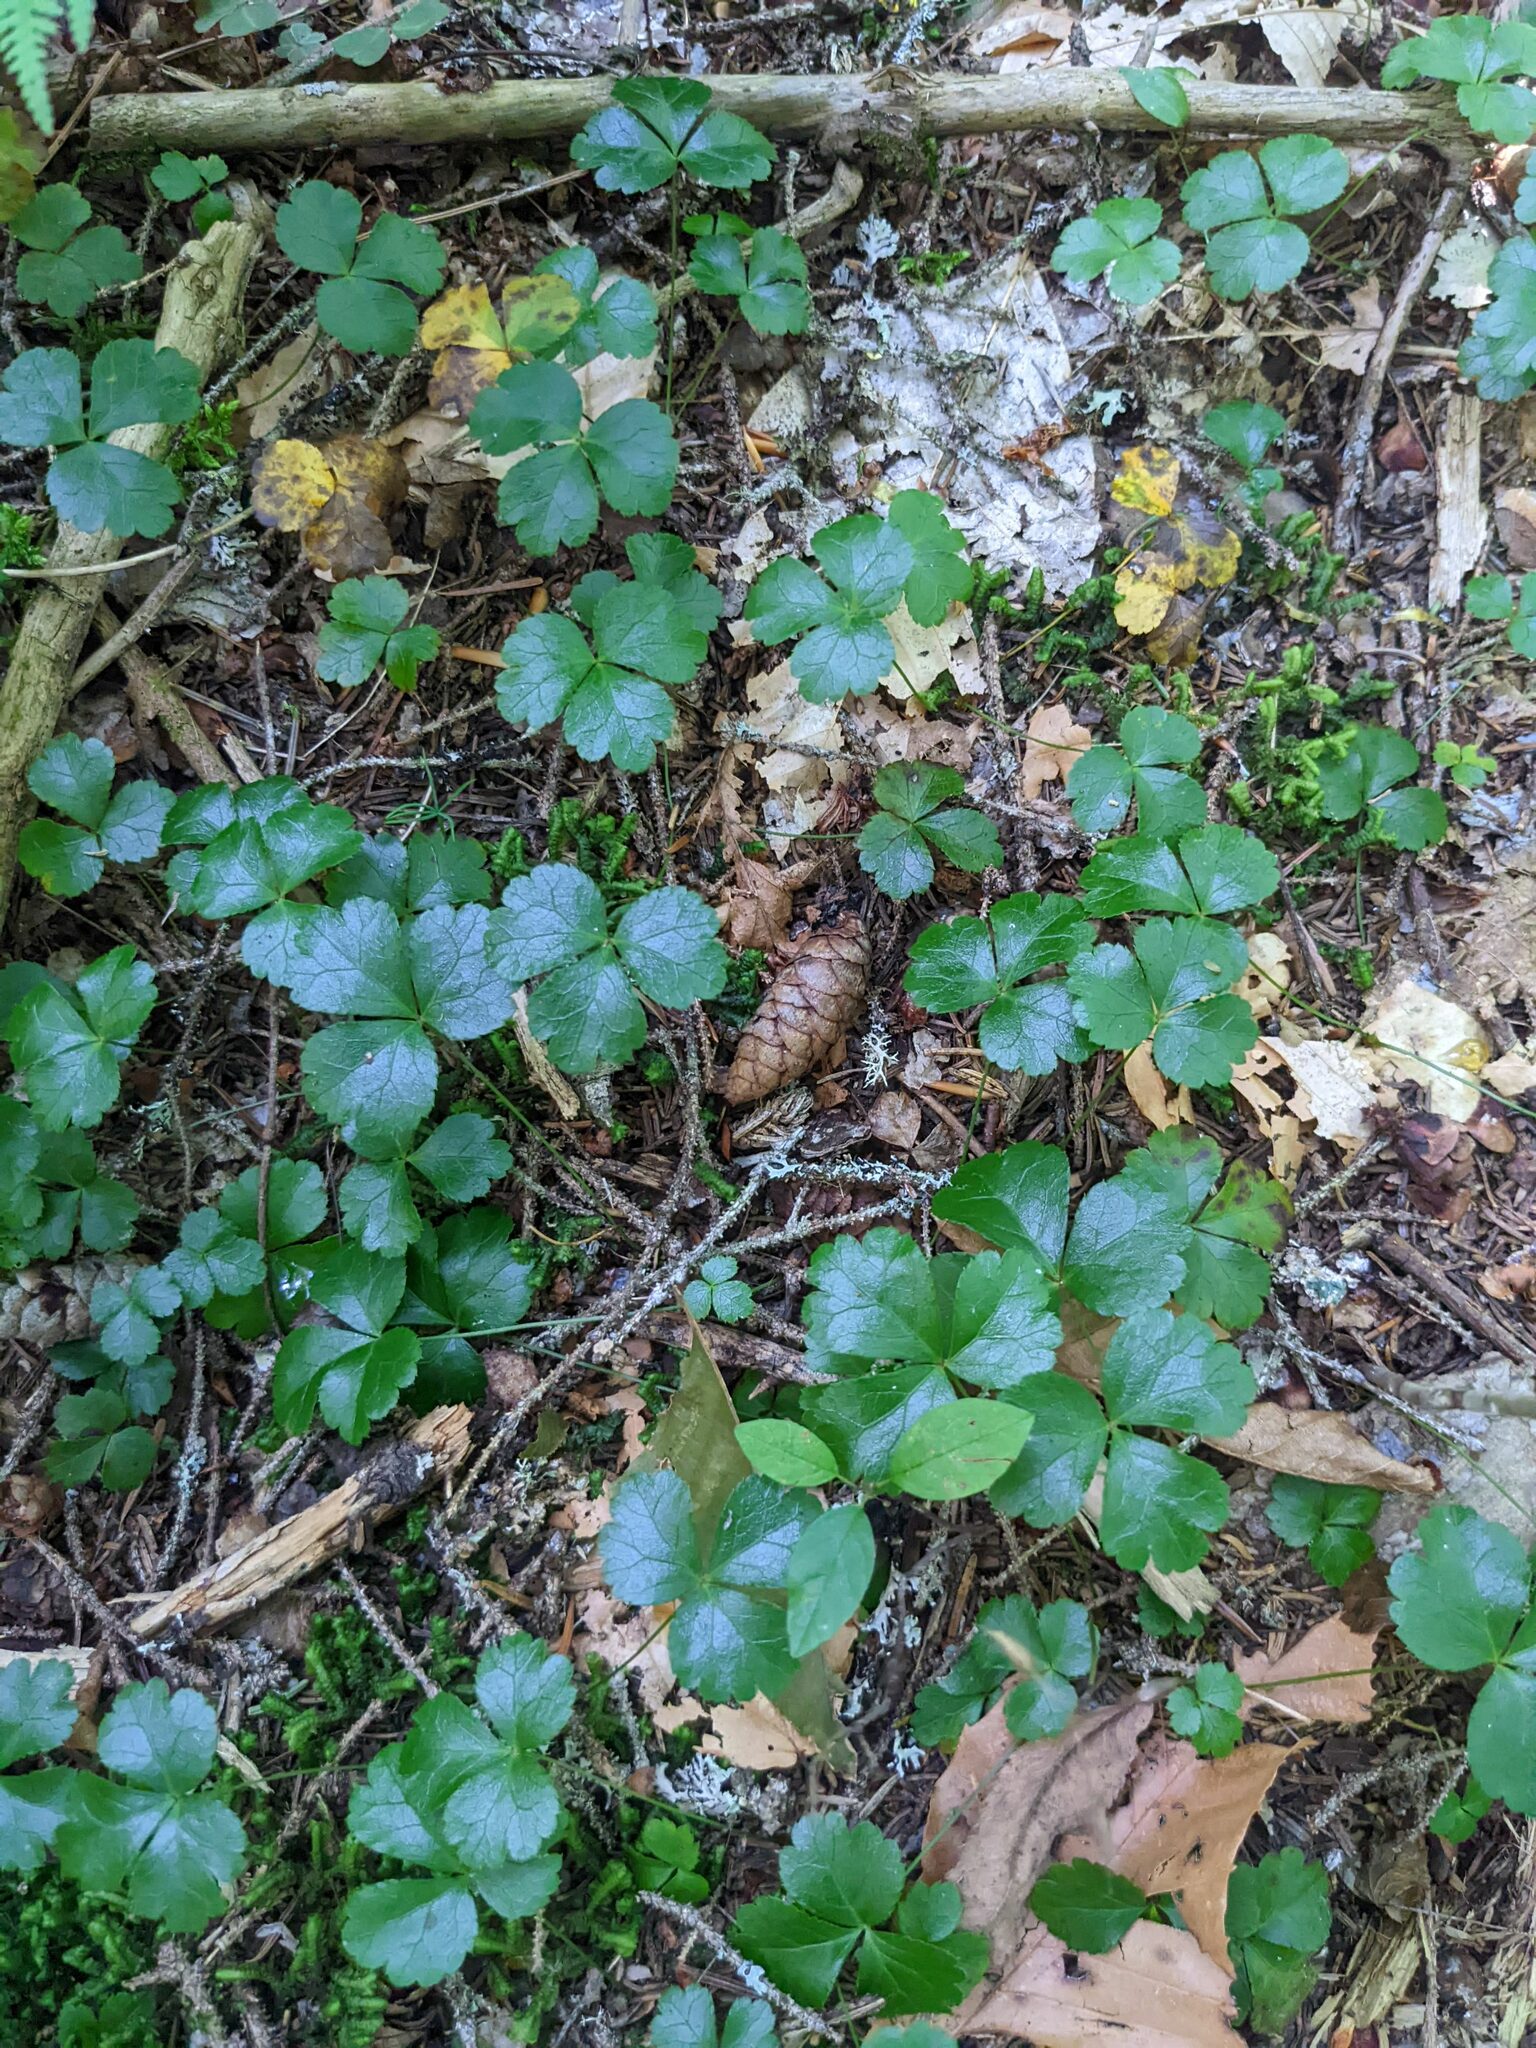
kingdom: Plantae
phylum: Tracheophyta
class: Magnoliopsida
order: Ranunculales
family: Ranunculaceae
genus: Coptis
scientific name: Coptis trifolia
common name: Canker-root
